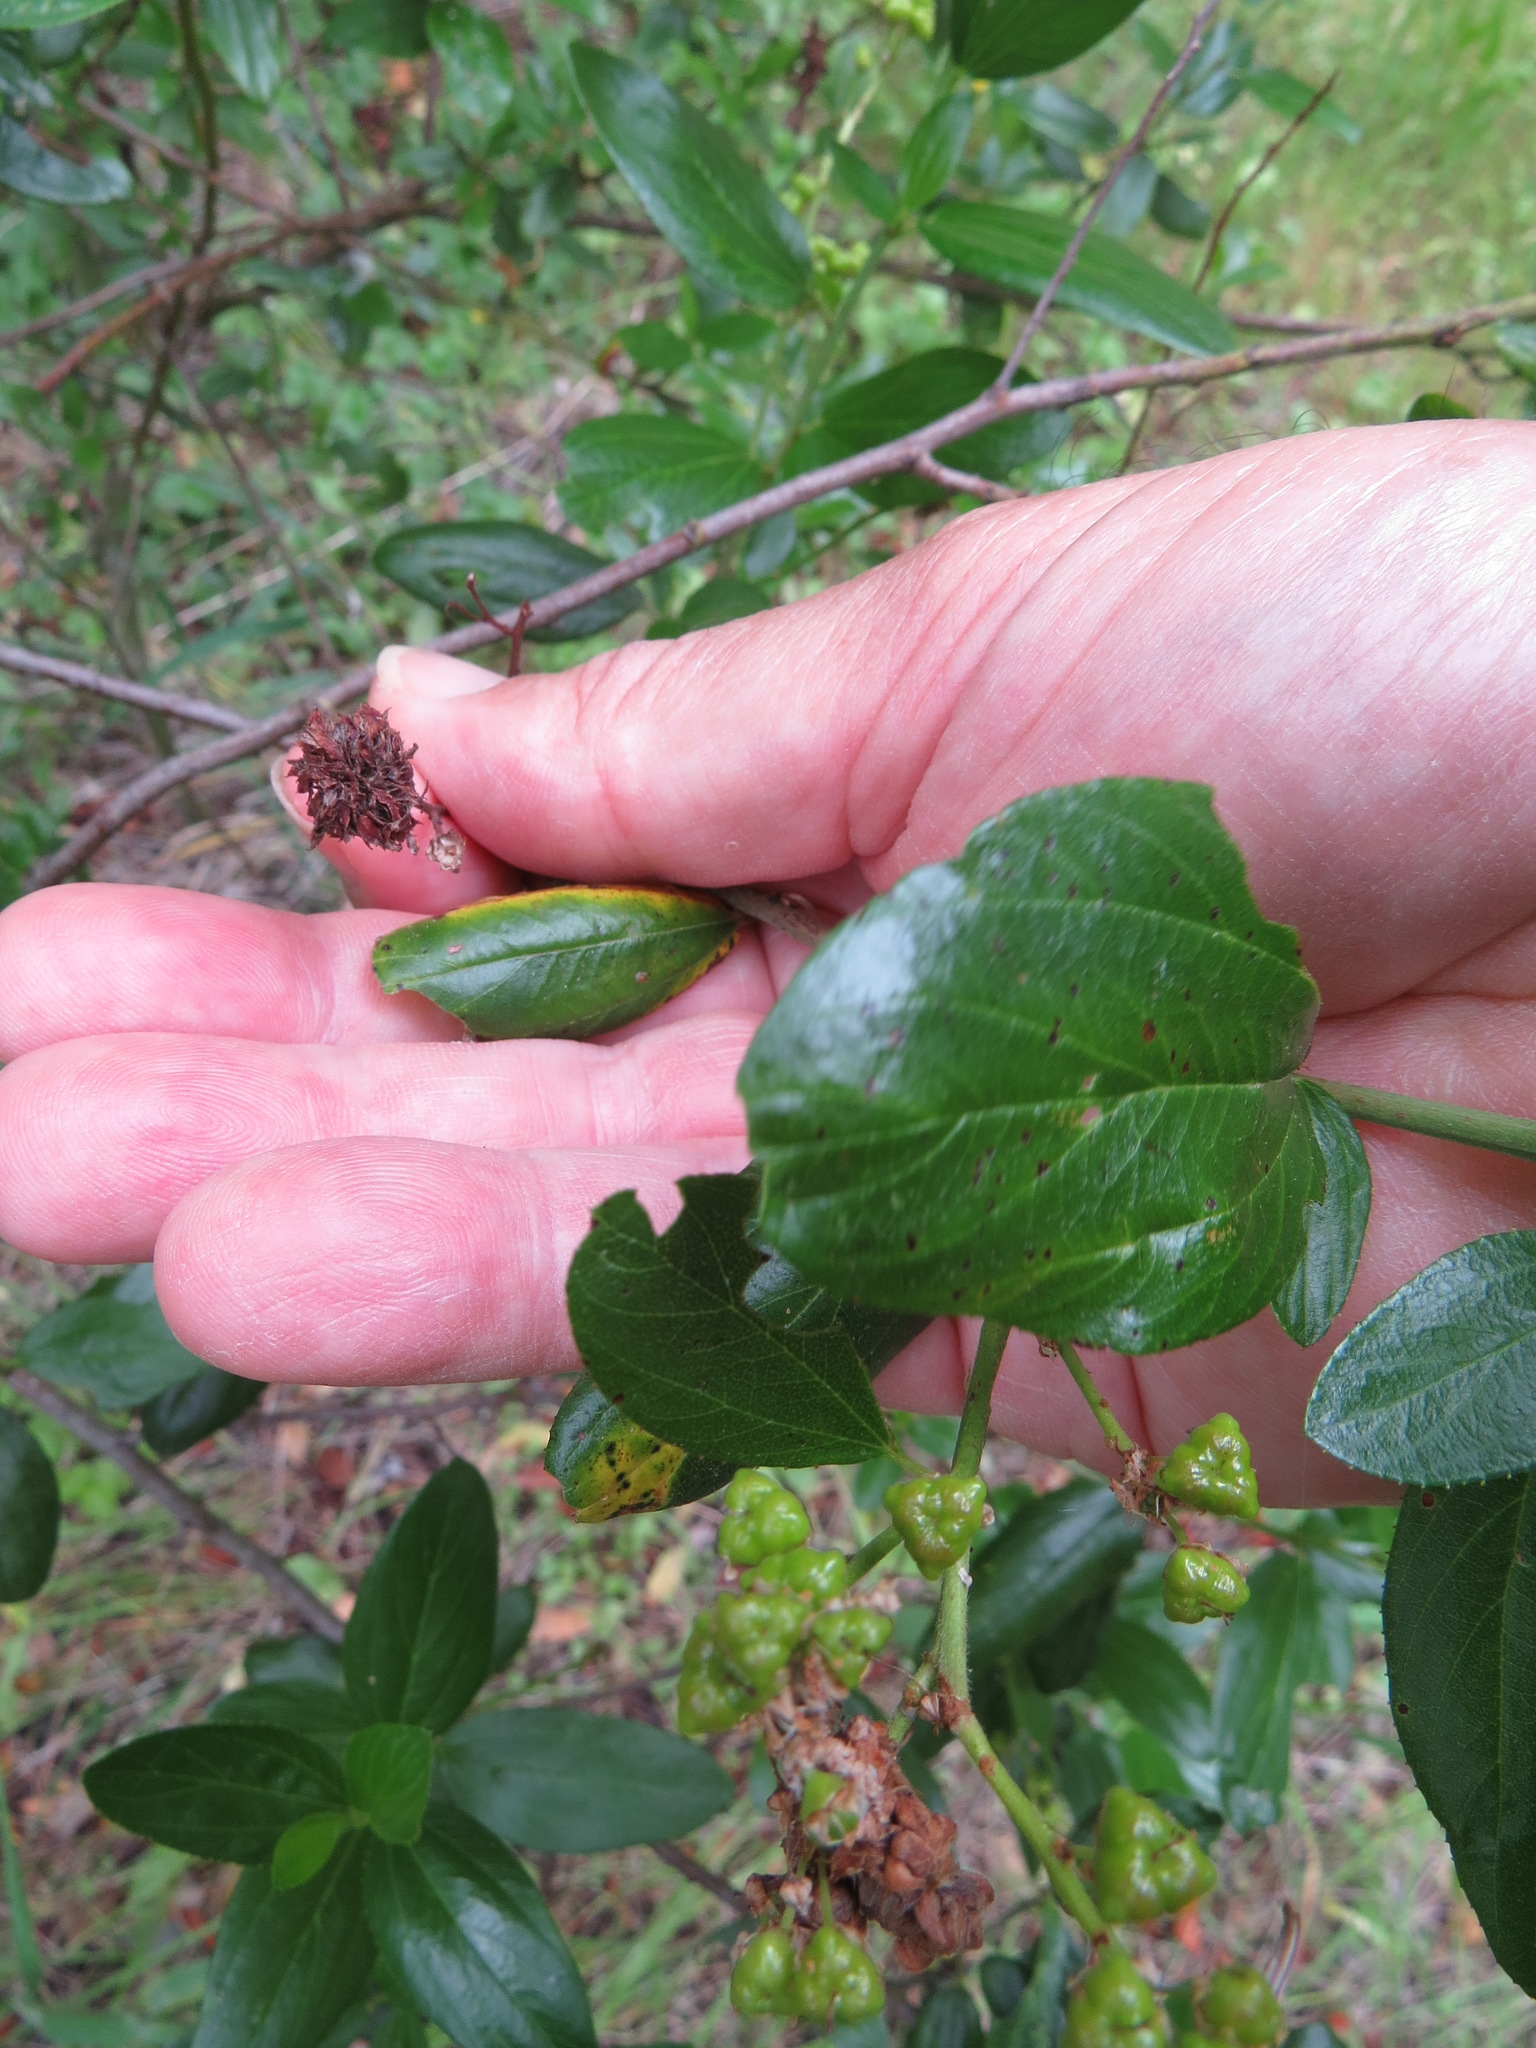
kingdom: Animalia
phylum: Arthropoda
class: Insecta
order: Diptera
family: Cecidomyiidae
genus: Asphondylia
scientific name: Asphondylia ceanothi
